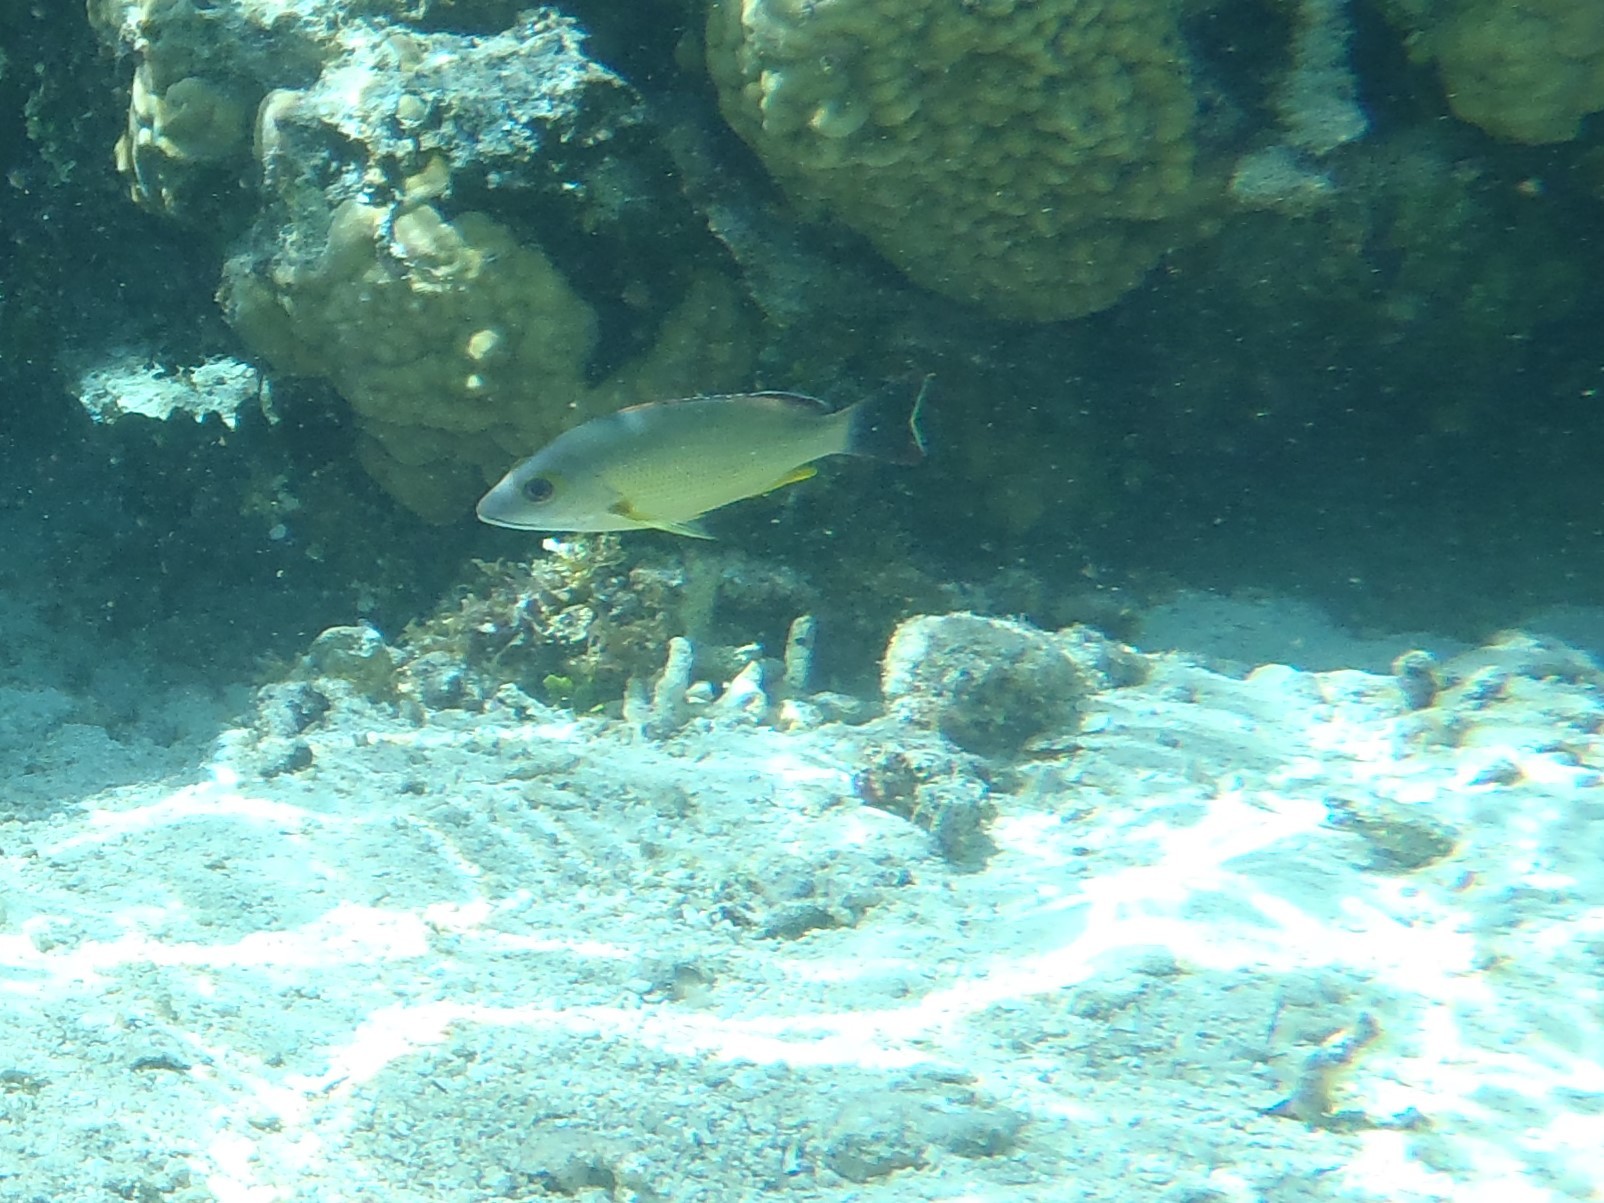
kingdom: Animalia
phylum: Chordata
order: Perciformes
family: Lutjanidae
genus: Lutjanus
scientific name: Lutjanus fulvus
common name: Blacktail snapper
